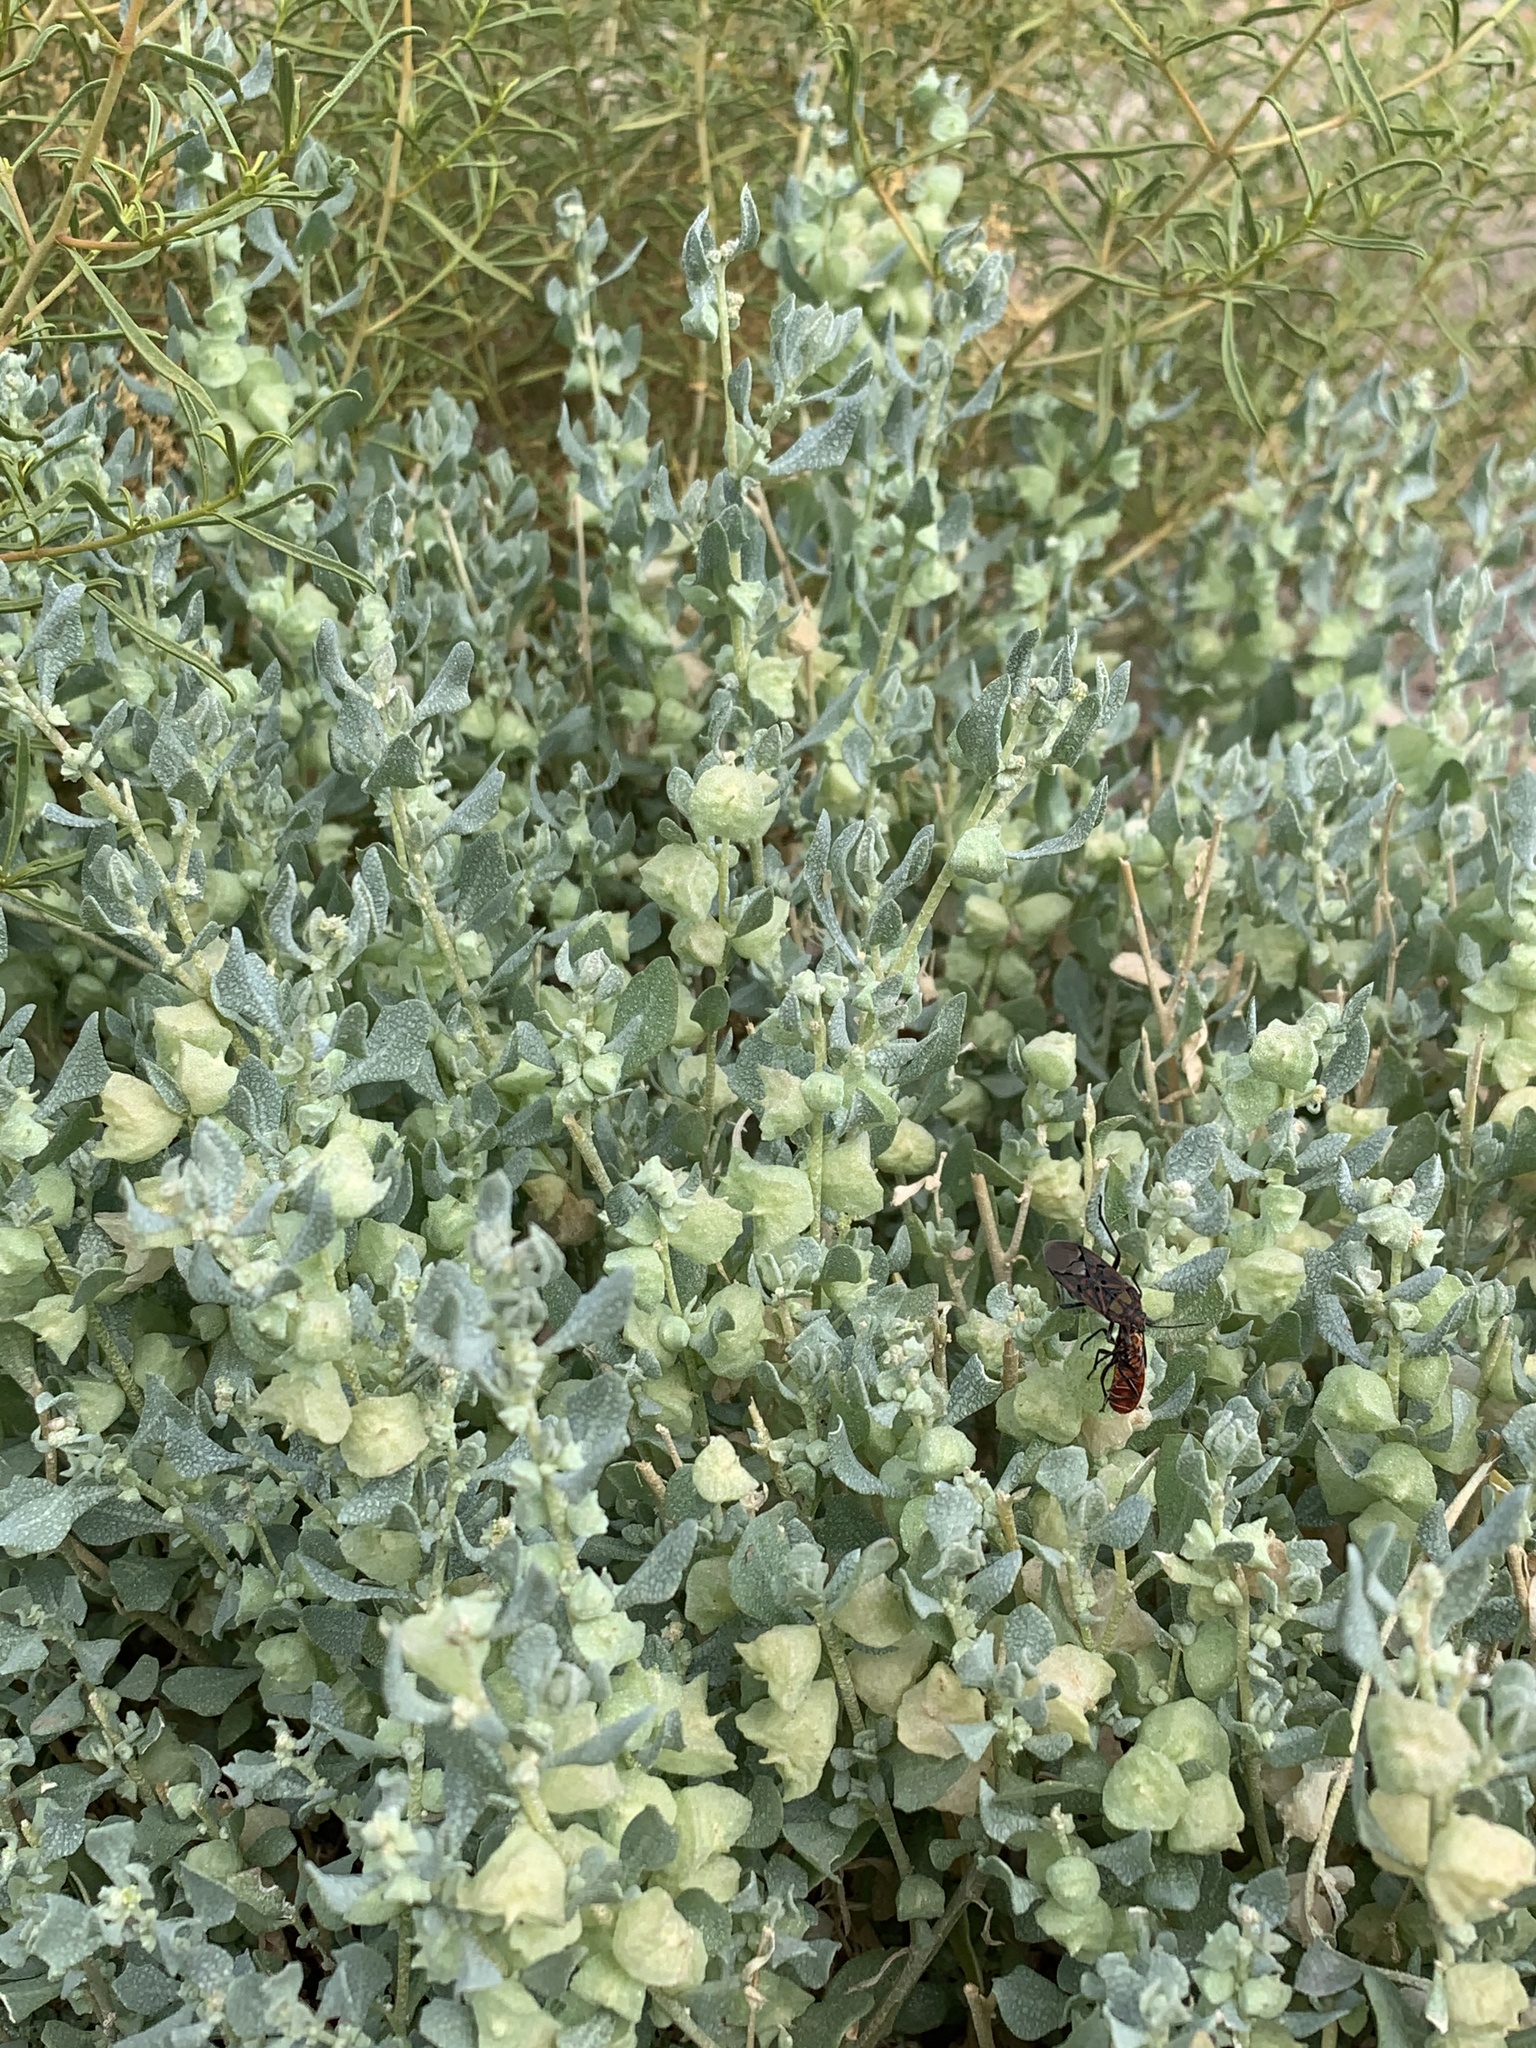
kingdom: Plantae
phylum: Tracheophyta
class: Magnoliopsida
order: Caryophyllales
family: Amaranthaceae
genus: Atriplex
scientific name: Atriplex lindleyi
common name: Lindley's saltbush
